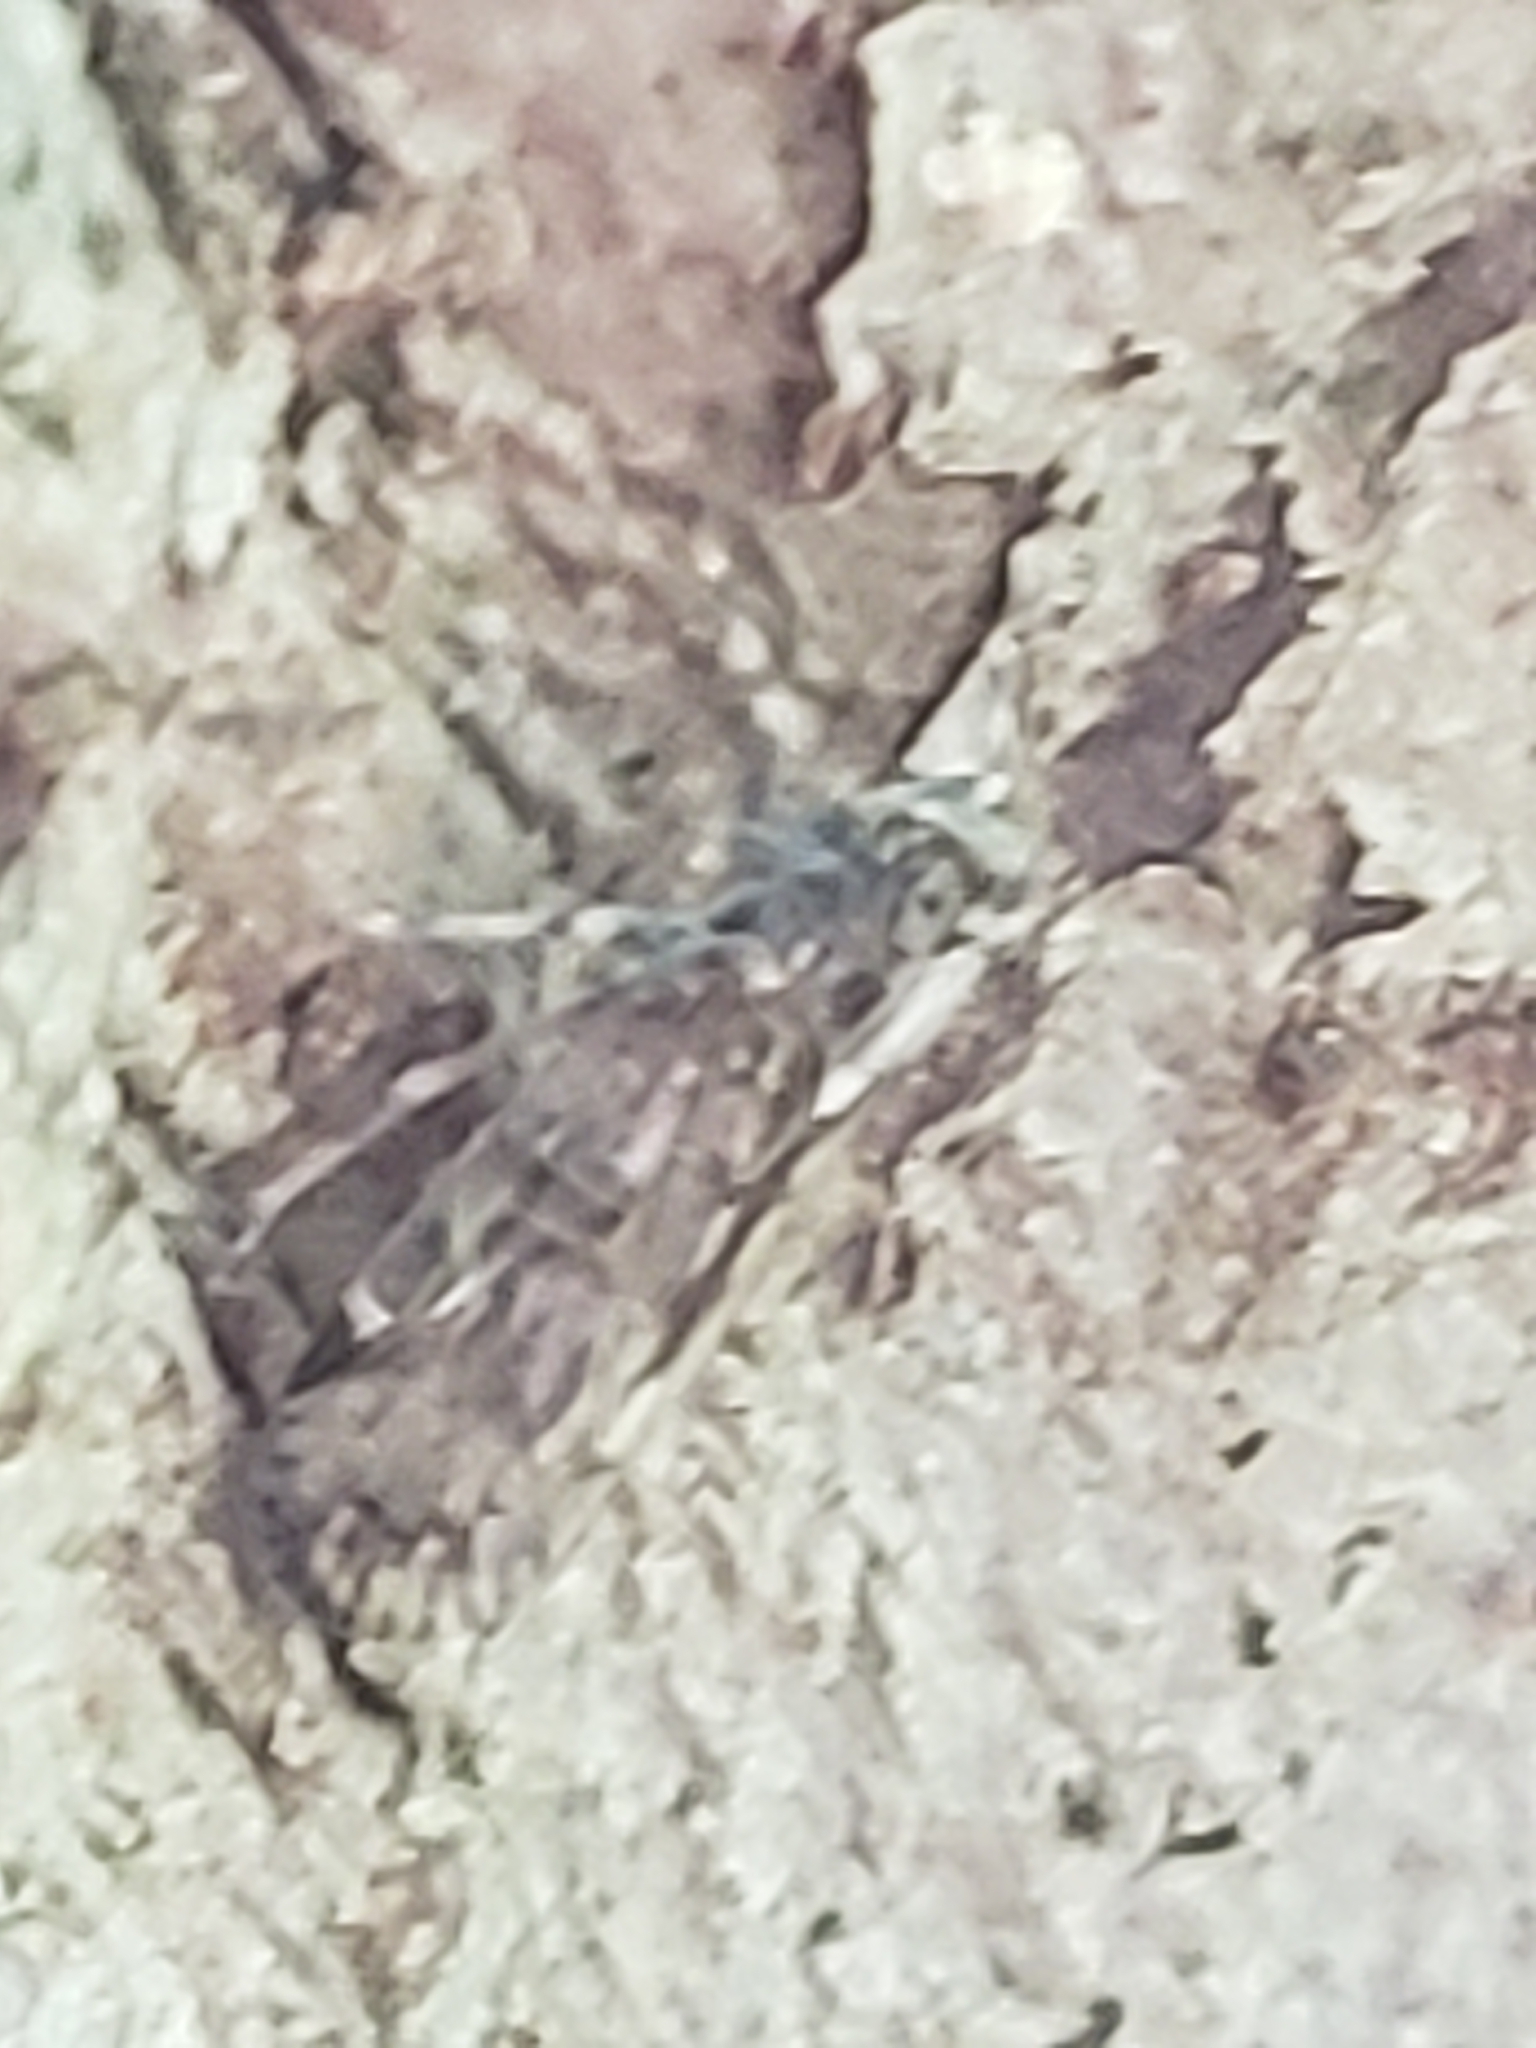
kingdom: Animalia
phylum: Arthropoda
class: Insecta
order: Hemiptera
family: Cixiidae
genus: Melanoliarus
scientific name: Melanoliarus placitus
